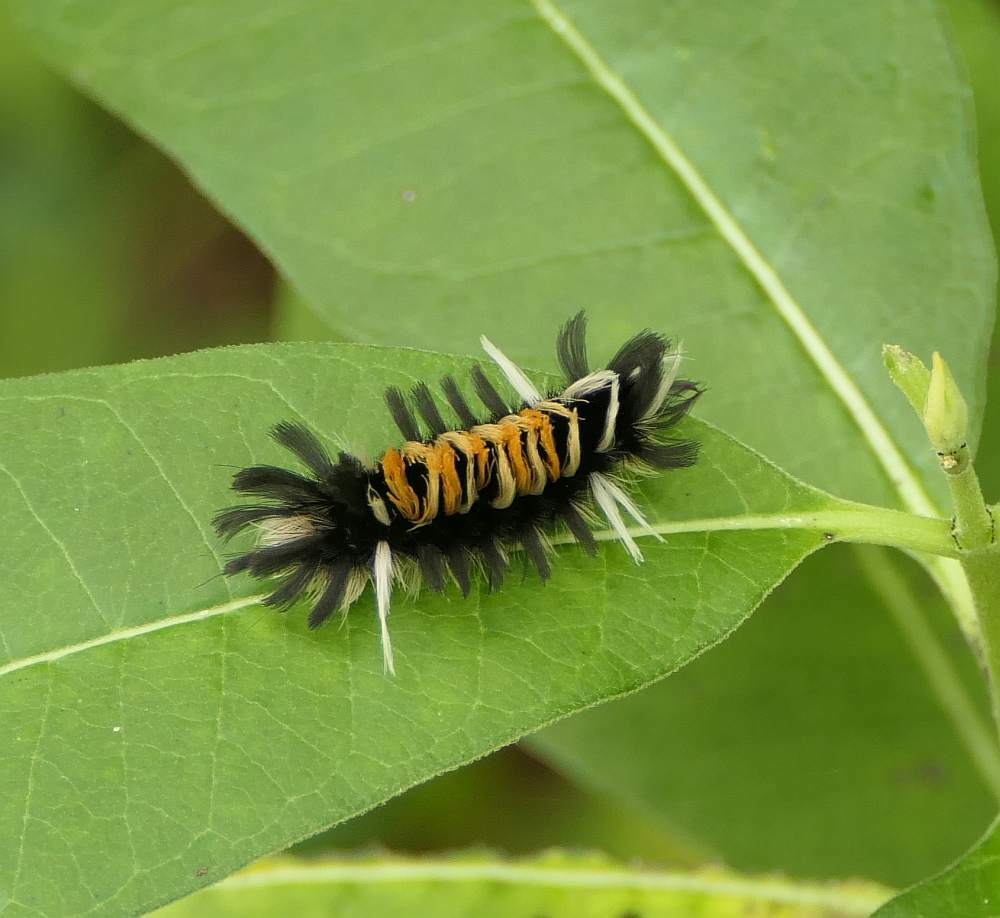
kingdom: Animalia
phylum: Arthropoda
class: Insecta
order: Lepidoptera
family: Erebidae
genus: Euchaetes
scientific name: Euchaetes egle
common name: Milkweed tussock moth
